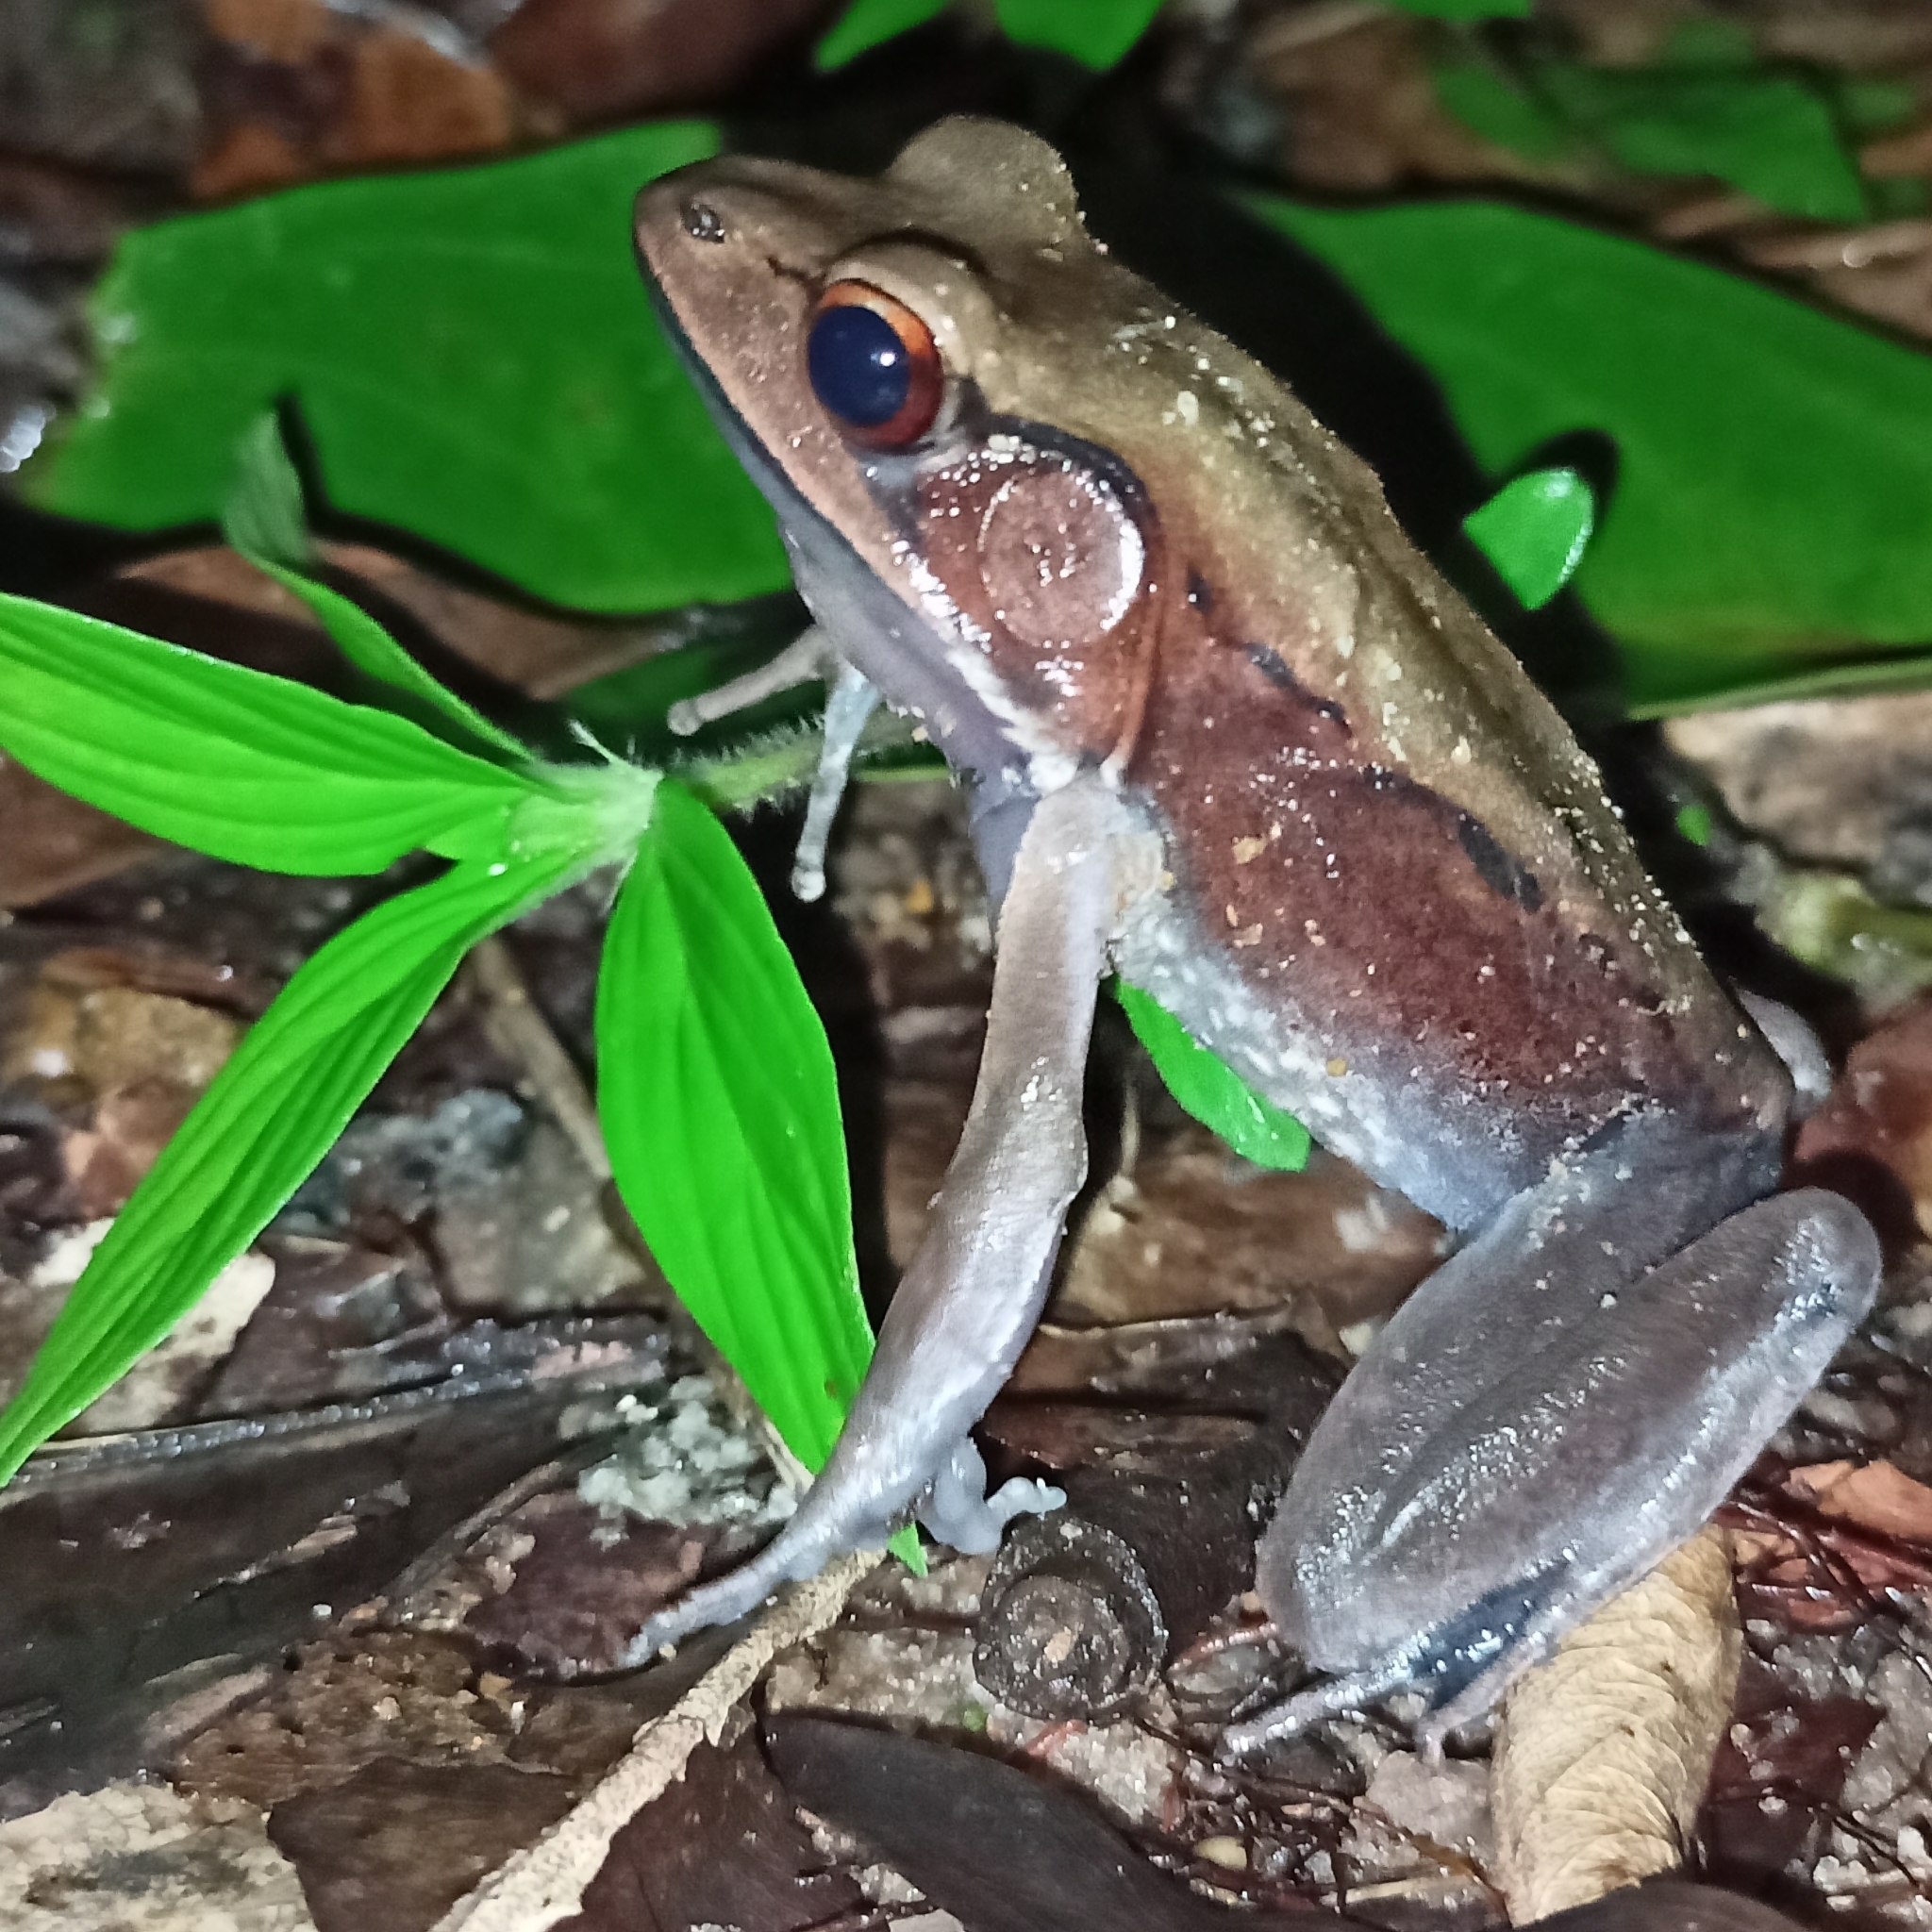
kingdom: Animalia
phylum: Chordata
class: Amphibia
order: Anura
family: Ranidae
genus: Clinotarsus
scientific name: Clinotarsus curtipes
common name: Bicoloured frog
